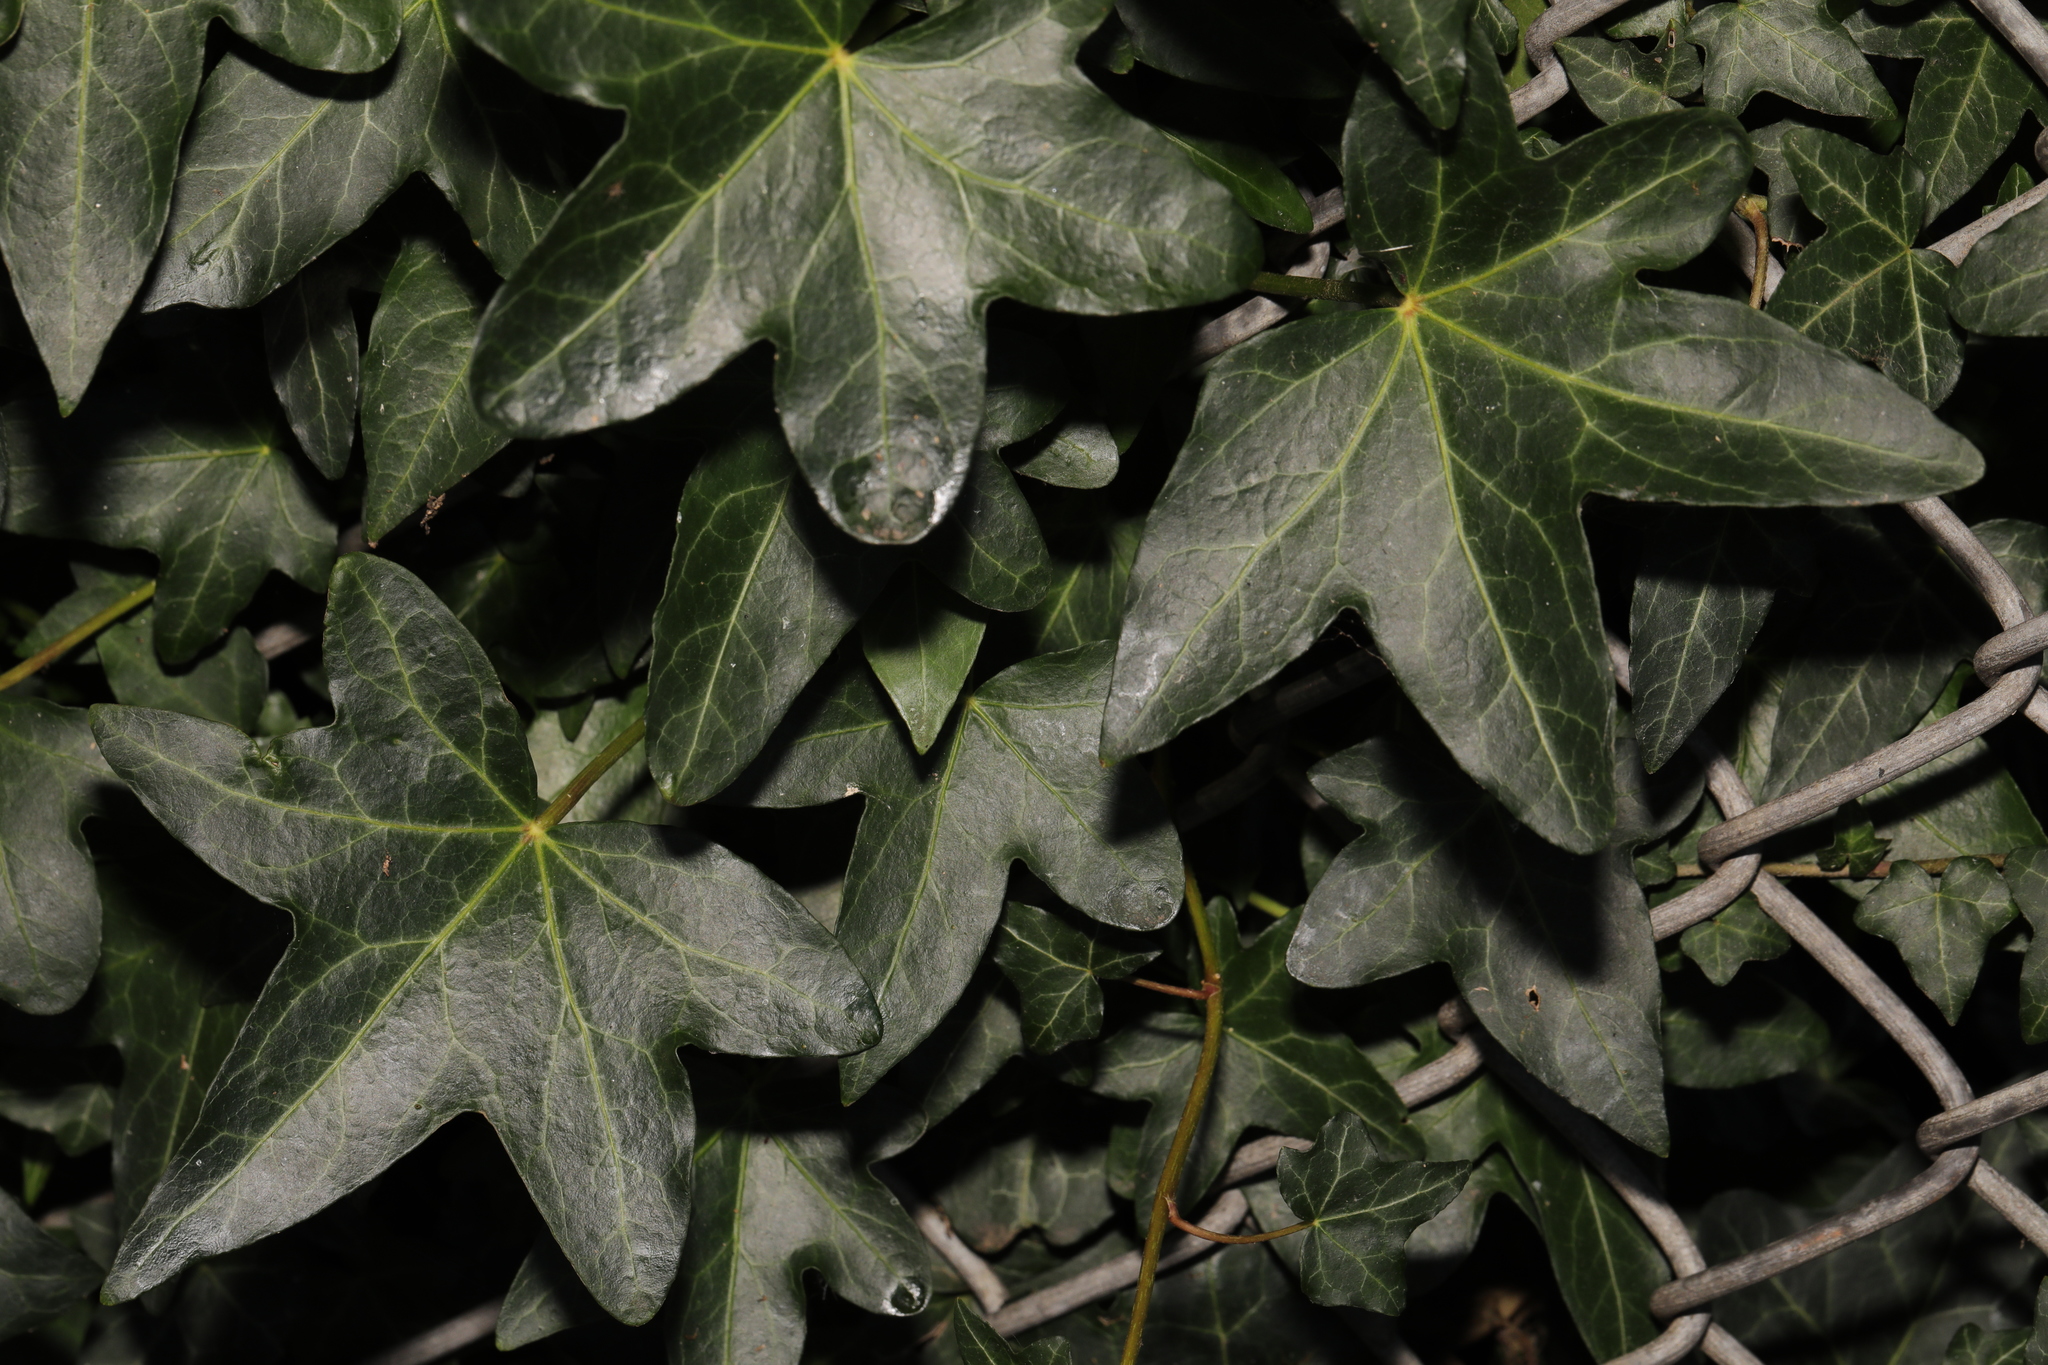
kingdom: Plantae
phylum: Tracheophyta
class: Magnoliopsida
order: Apiales
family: Araliaceae
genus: Hedera
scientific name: Hedera helix
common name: Ivy
